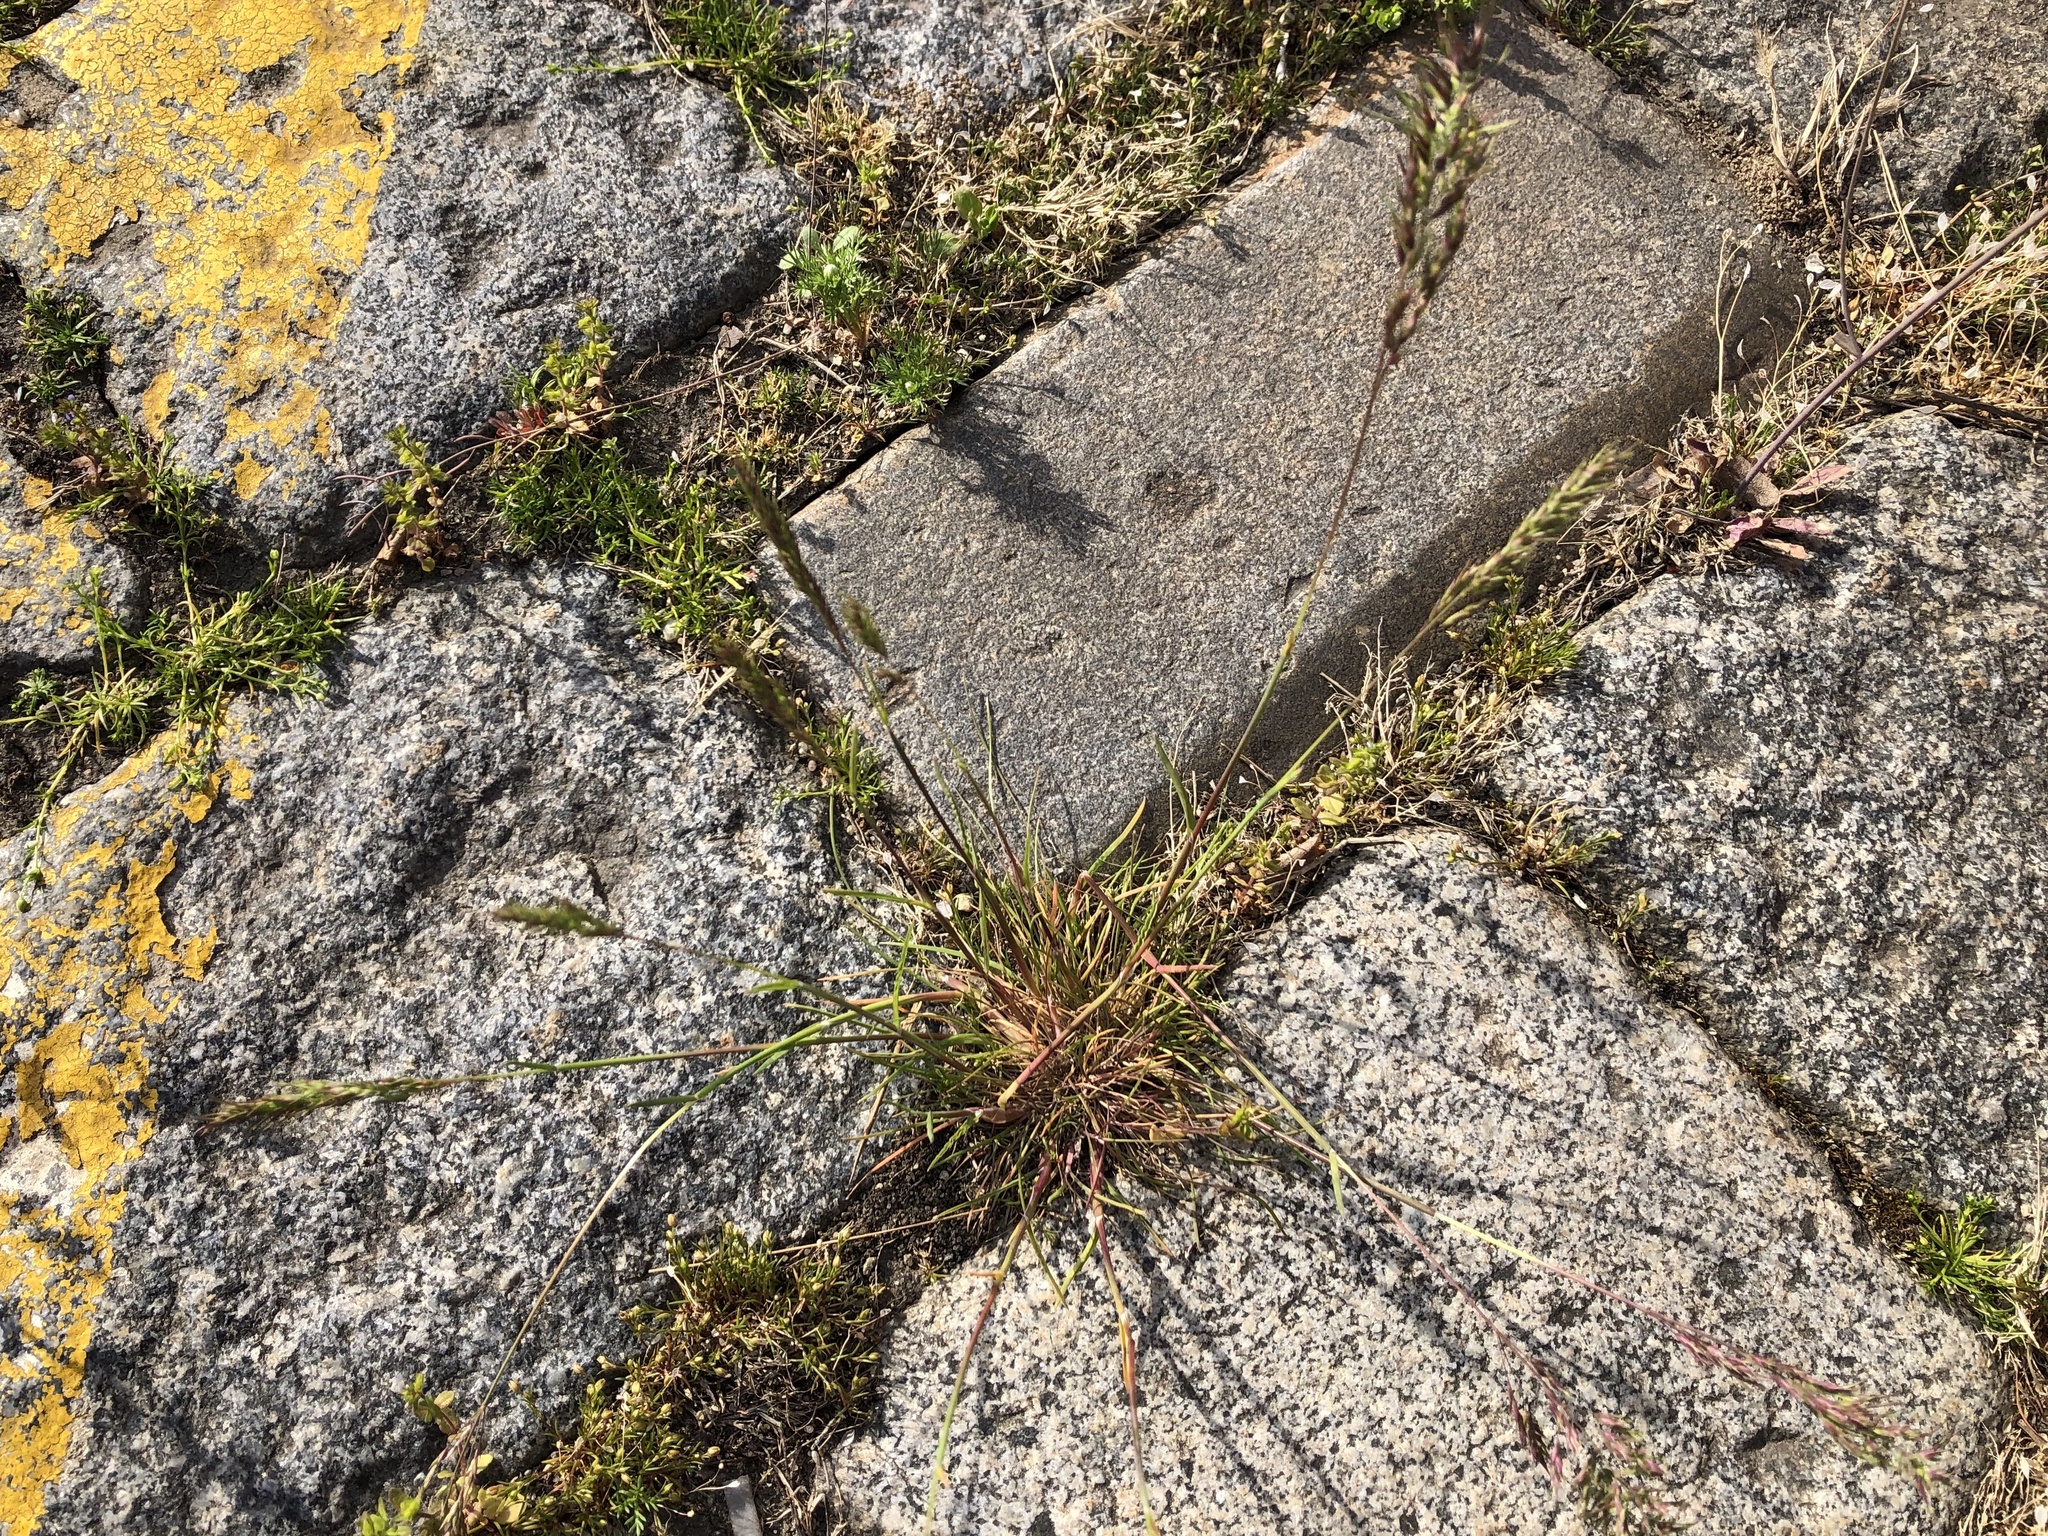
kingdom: Plantae
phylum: Tracheophyta
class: Liliopsida
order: Poales
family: Poaceae
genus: Poa
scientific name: Poa bulbosa
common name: Bulbous bluegrass
